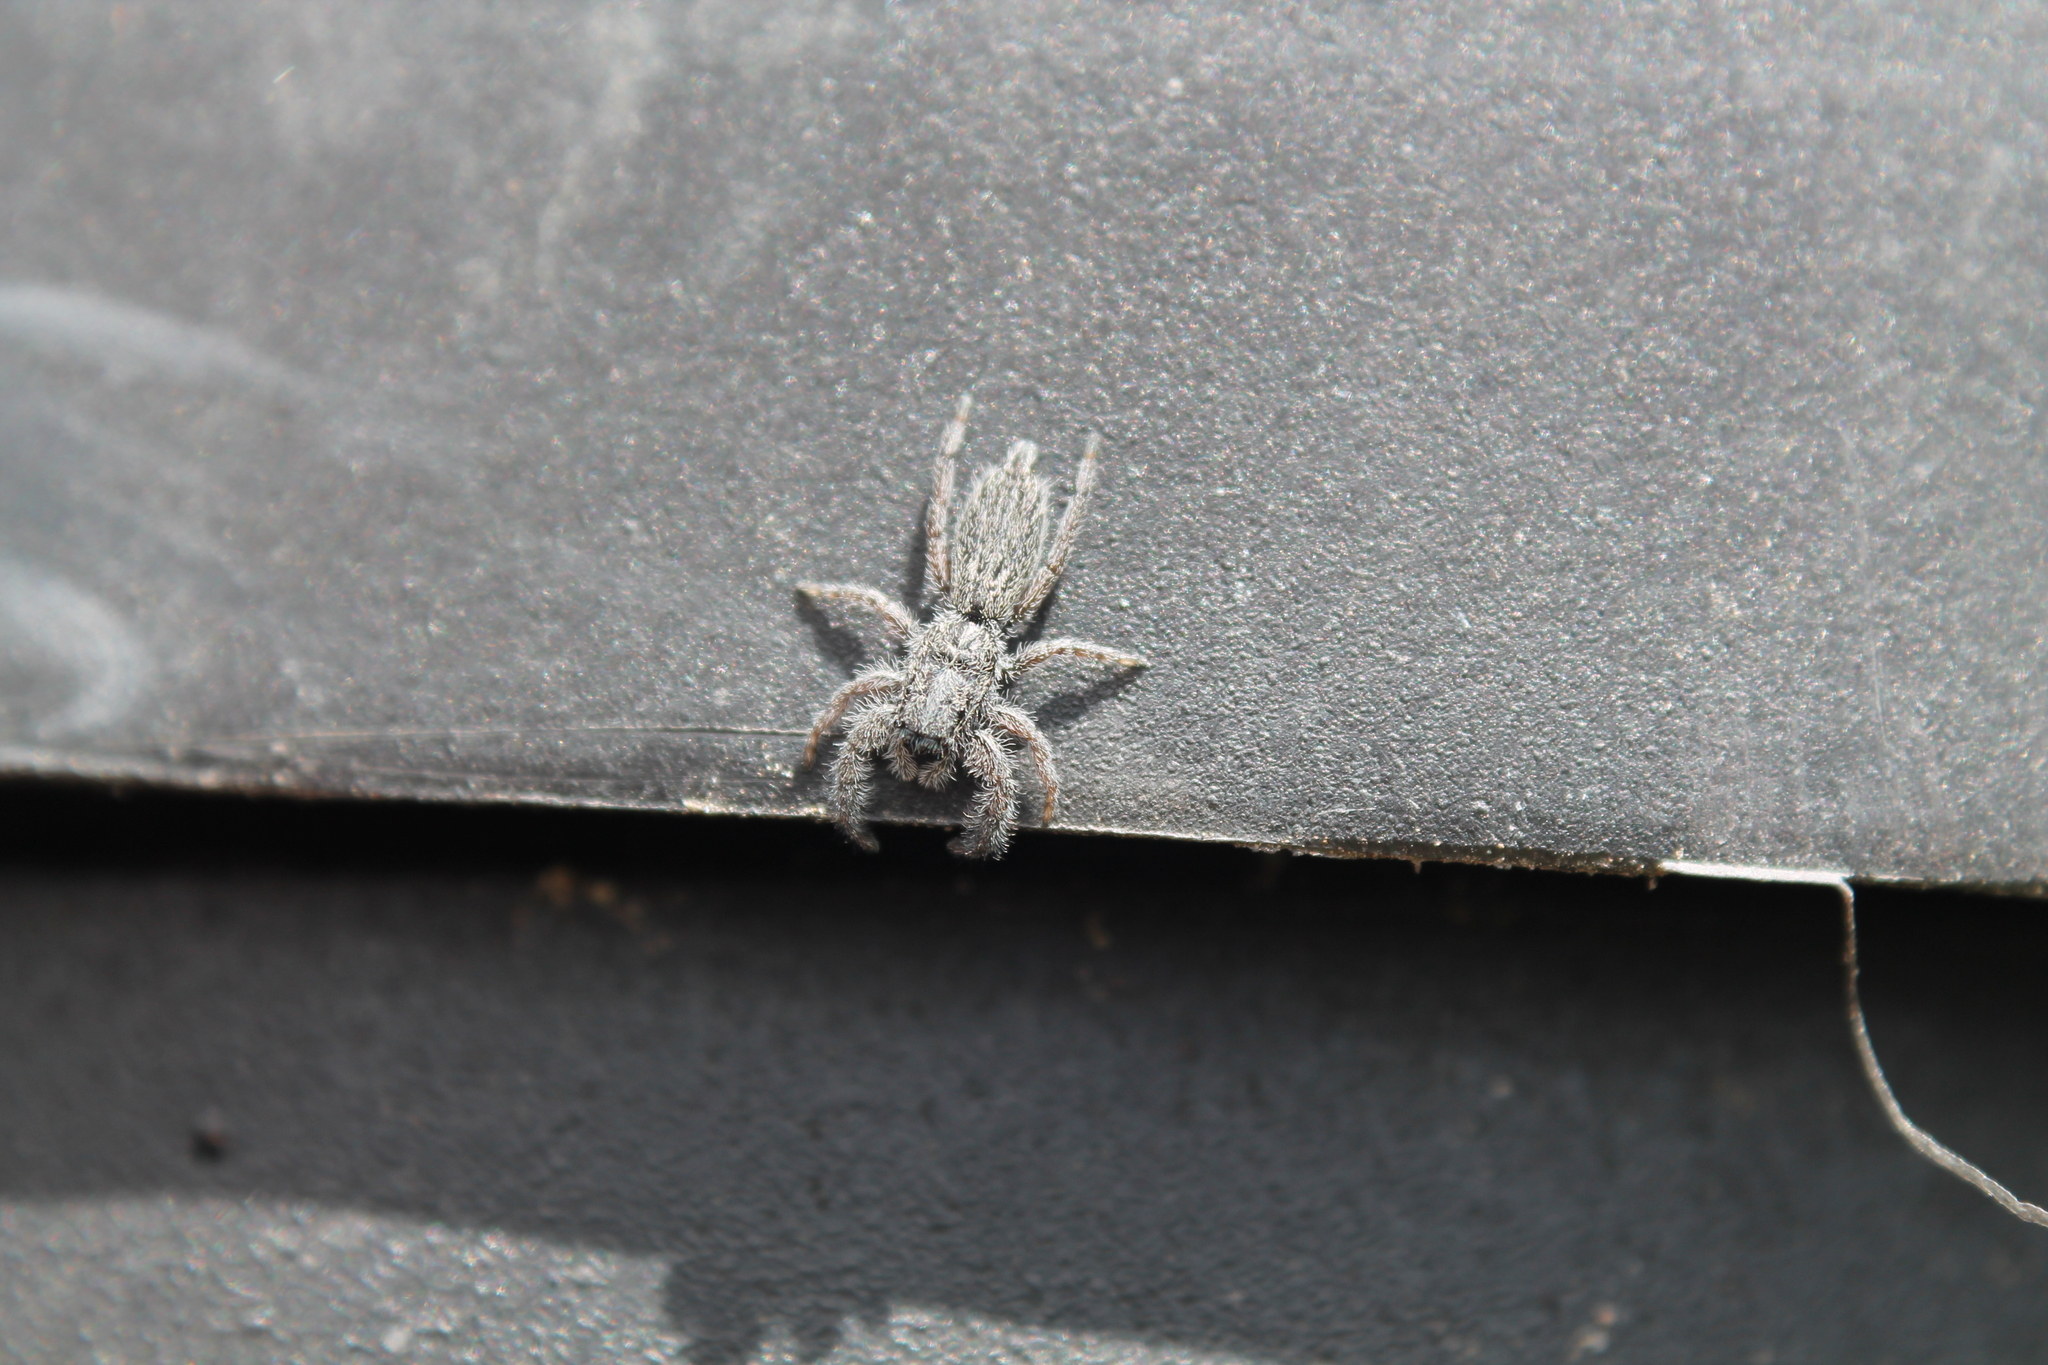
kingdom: Animalia
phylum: Arthropoda
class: Arachnida
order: Araneae
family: Salticidae
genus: Holoplatys
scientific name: Holoplatys apressus
